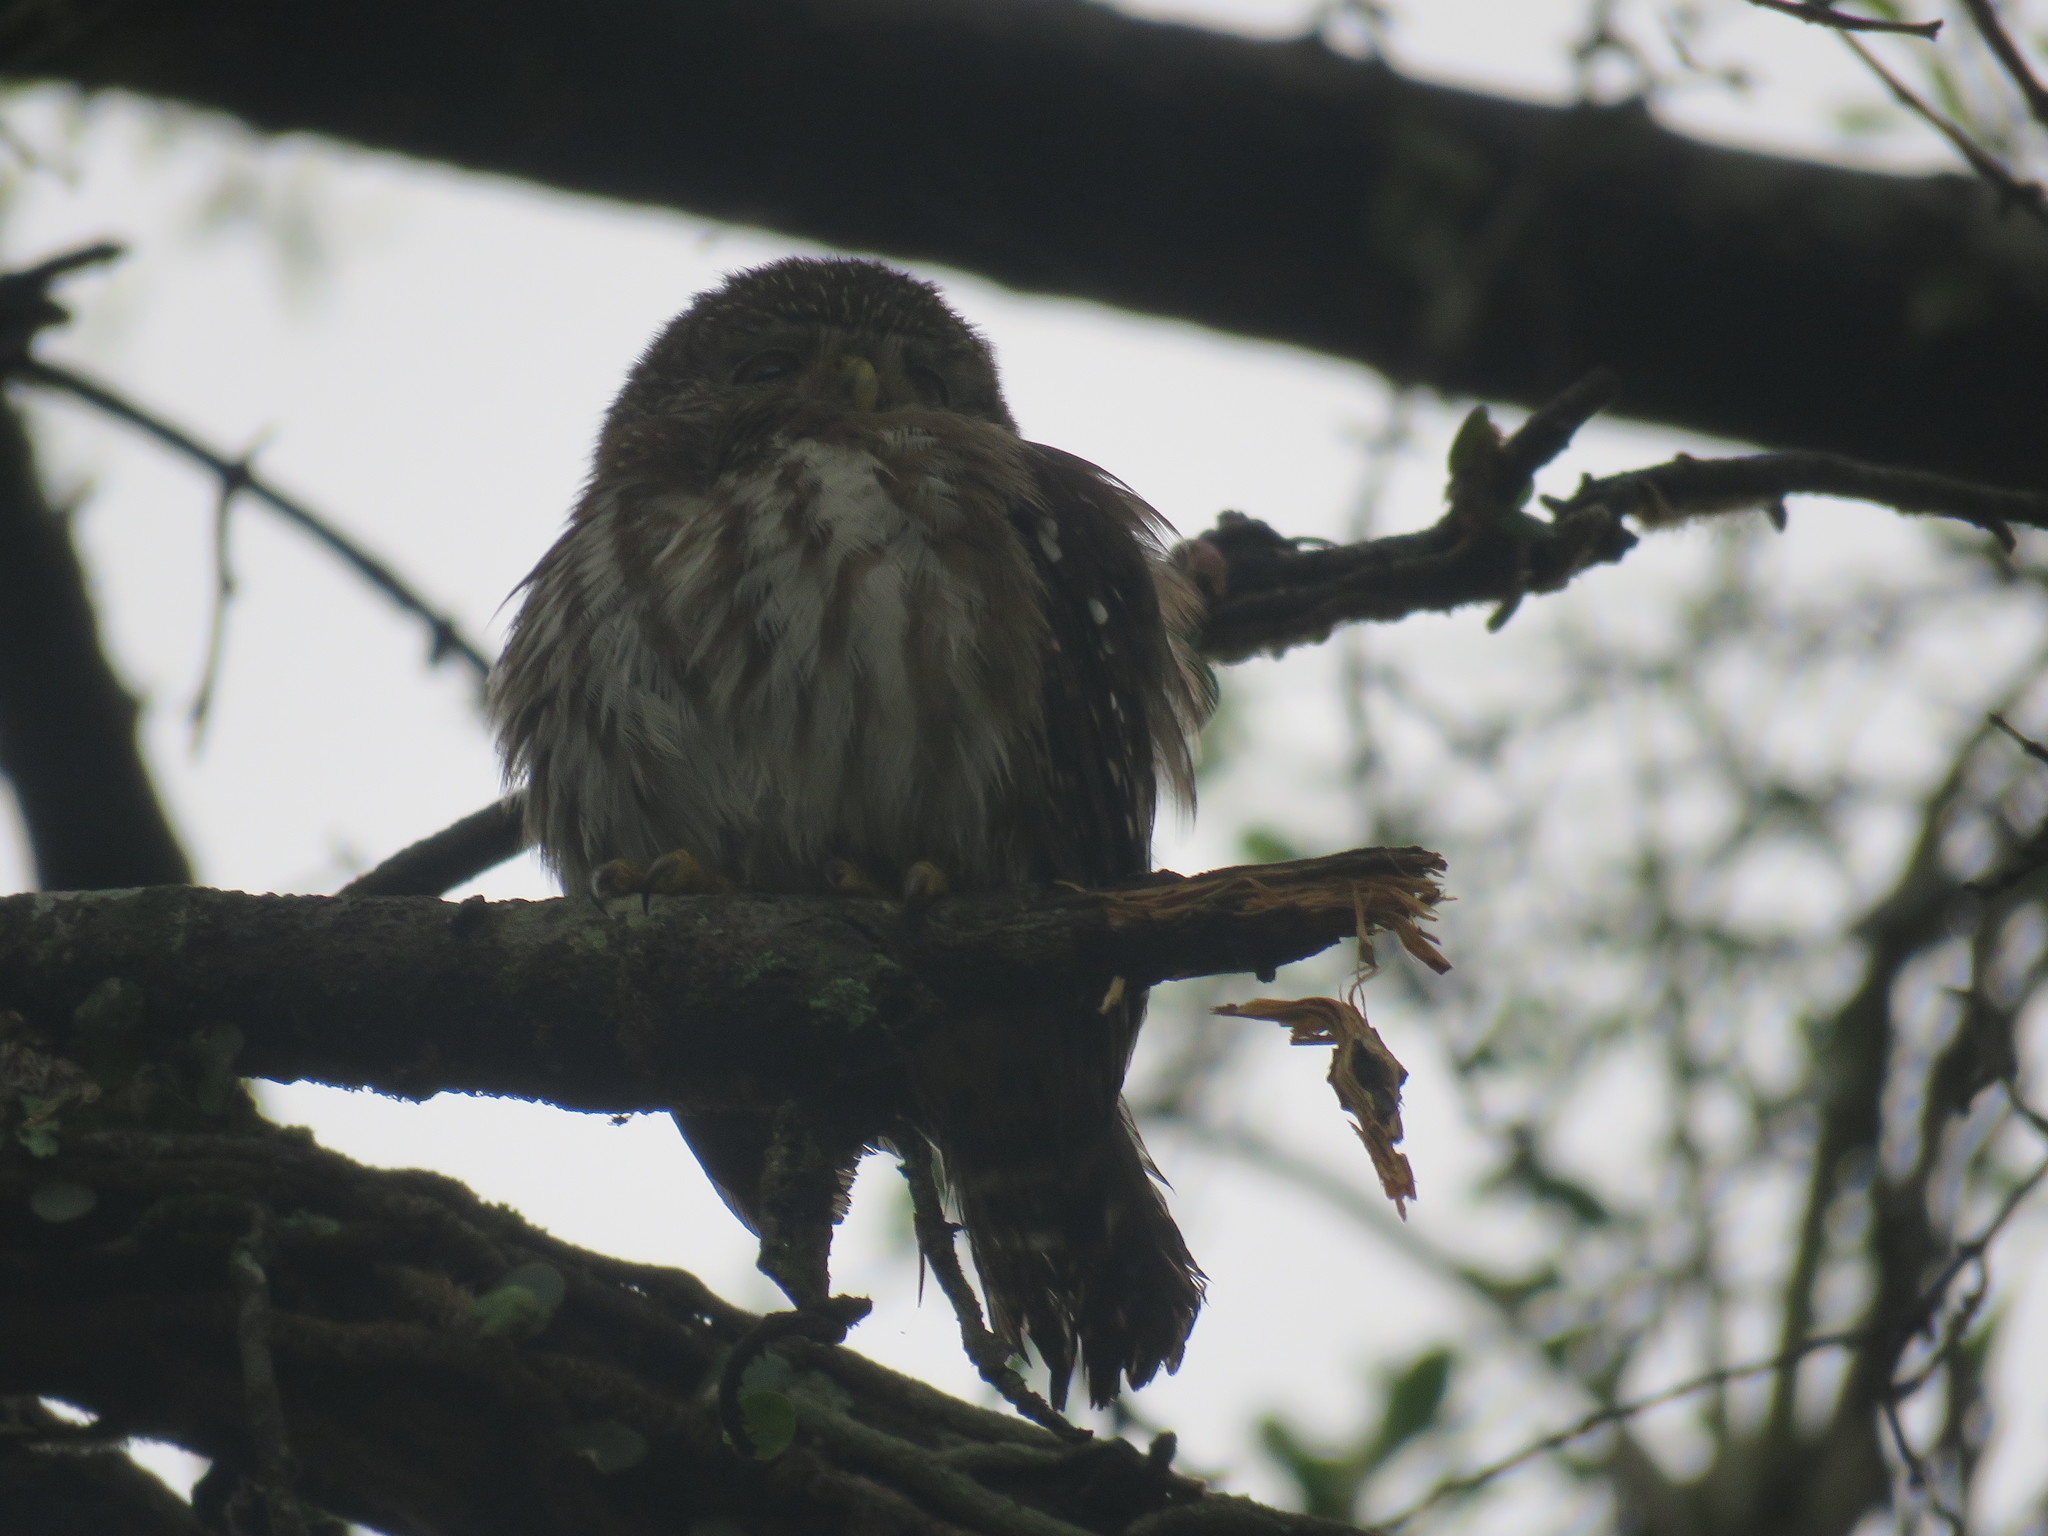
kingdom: Animalia
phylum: Chordata
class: Aves
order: Strigiformes
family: Strigidae
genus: Glaucidium
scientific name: Glaucidium brasilianum
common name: Ferruginous pygmy-owl
